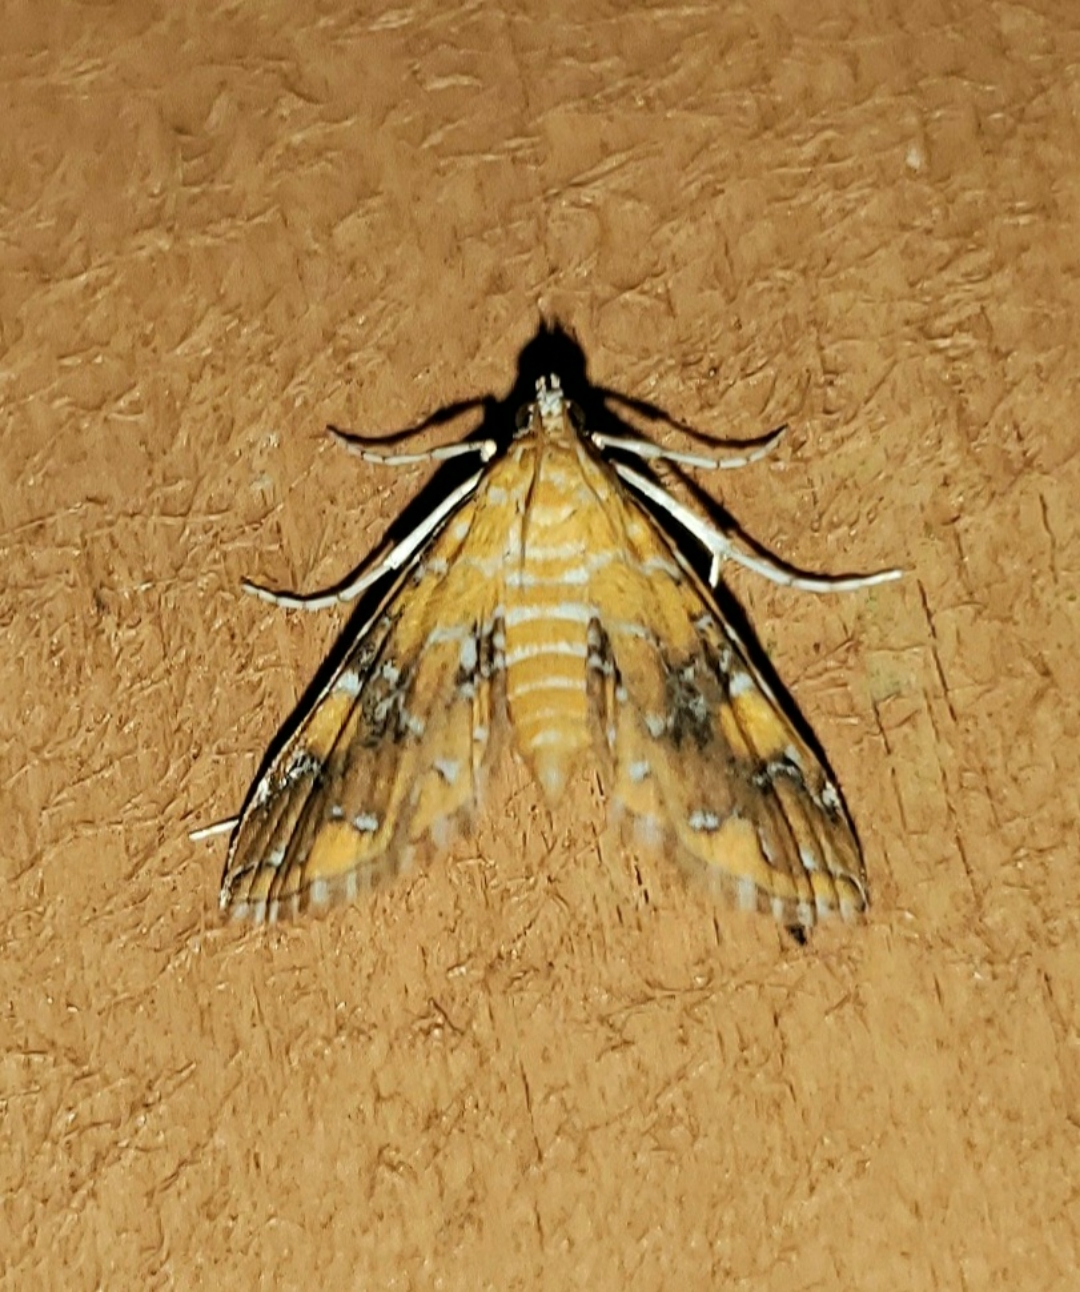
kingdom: Animalia
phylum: Arthropoda
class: Insecta
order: Lepidoptera
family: Crambidae
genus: Elophila
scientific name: Elophila nebulosalis
